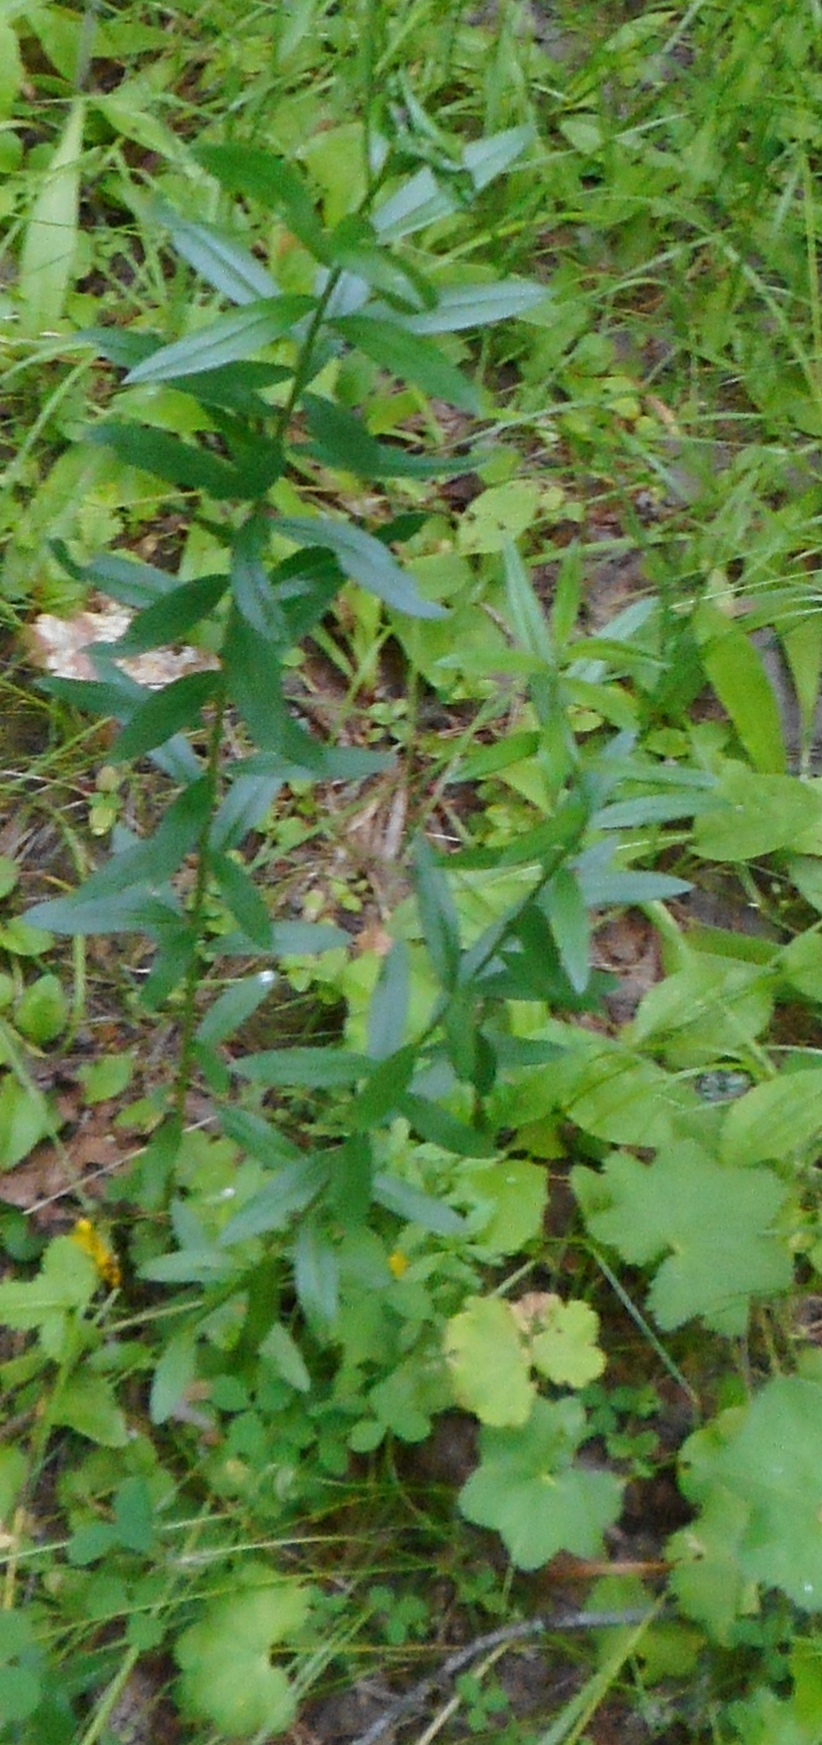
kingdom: Plantae
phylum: Tracheophyta
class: Magnoliopsida
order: Fabales
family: Fabaceae
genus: Genista
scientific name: Genista tinctoria
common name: Dyer's greenweed
